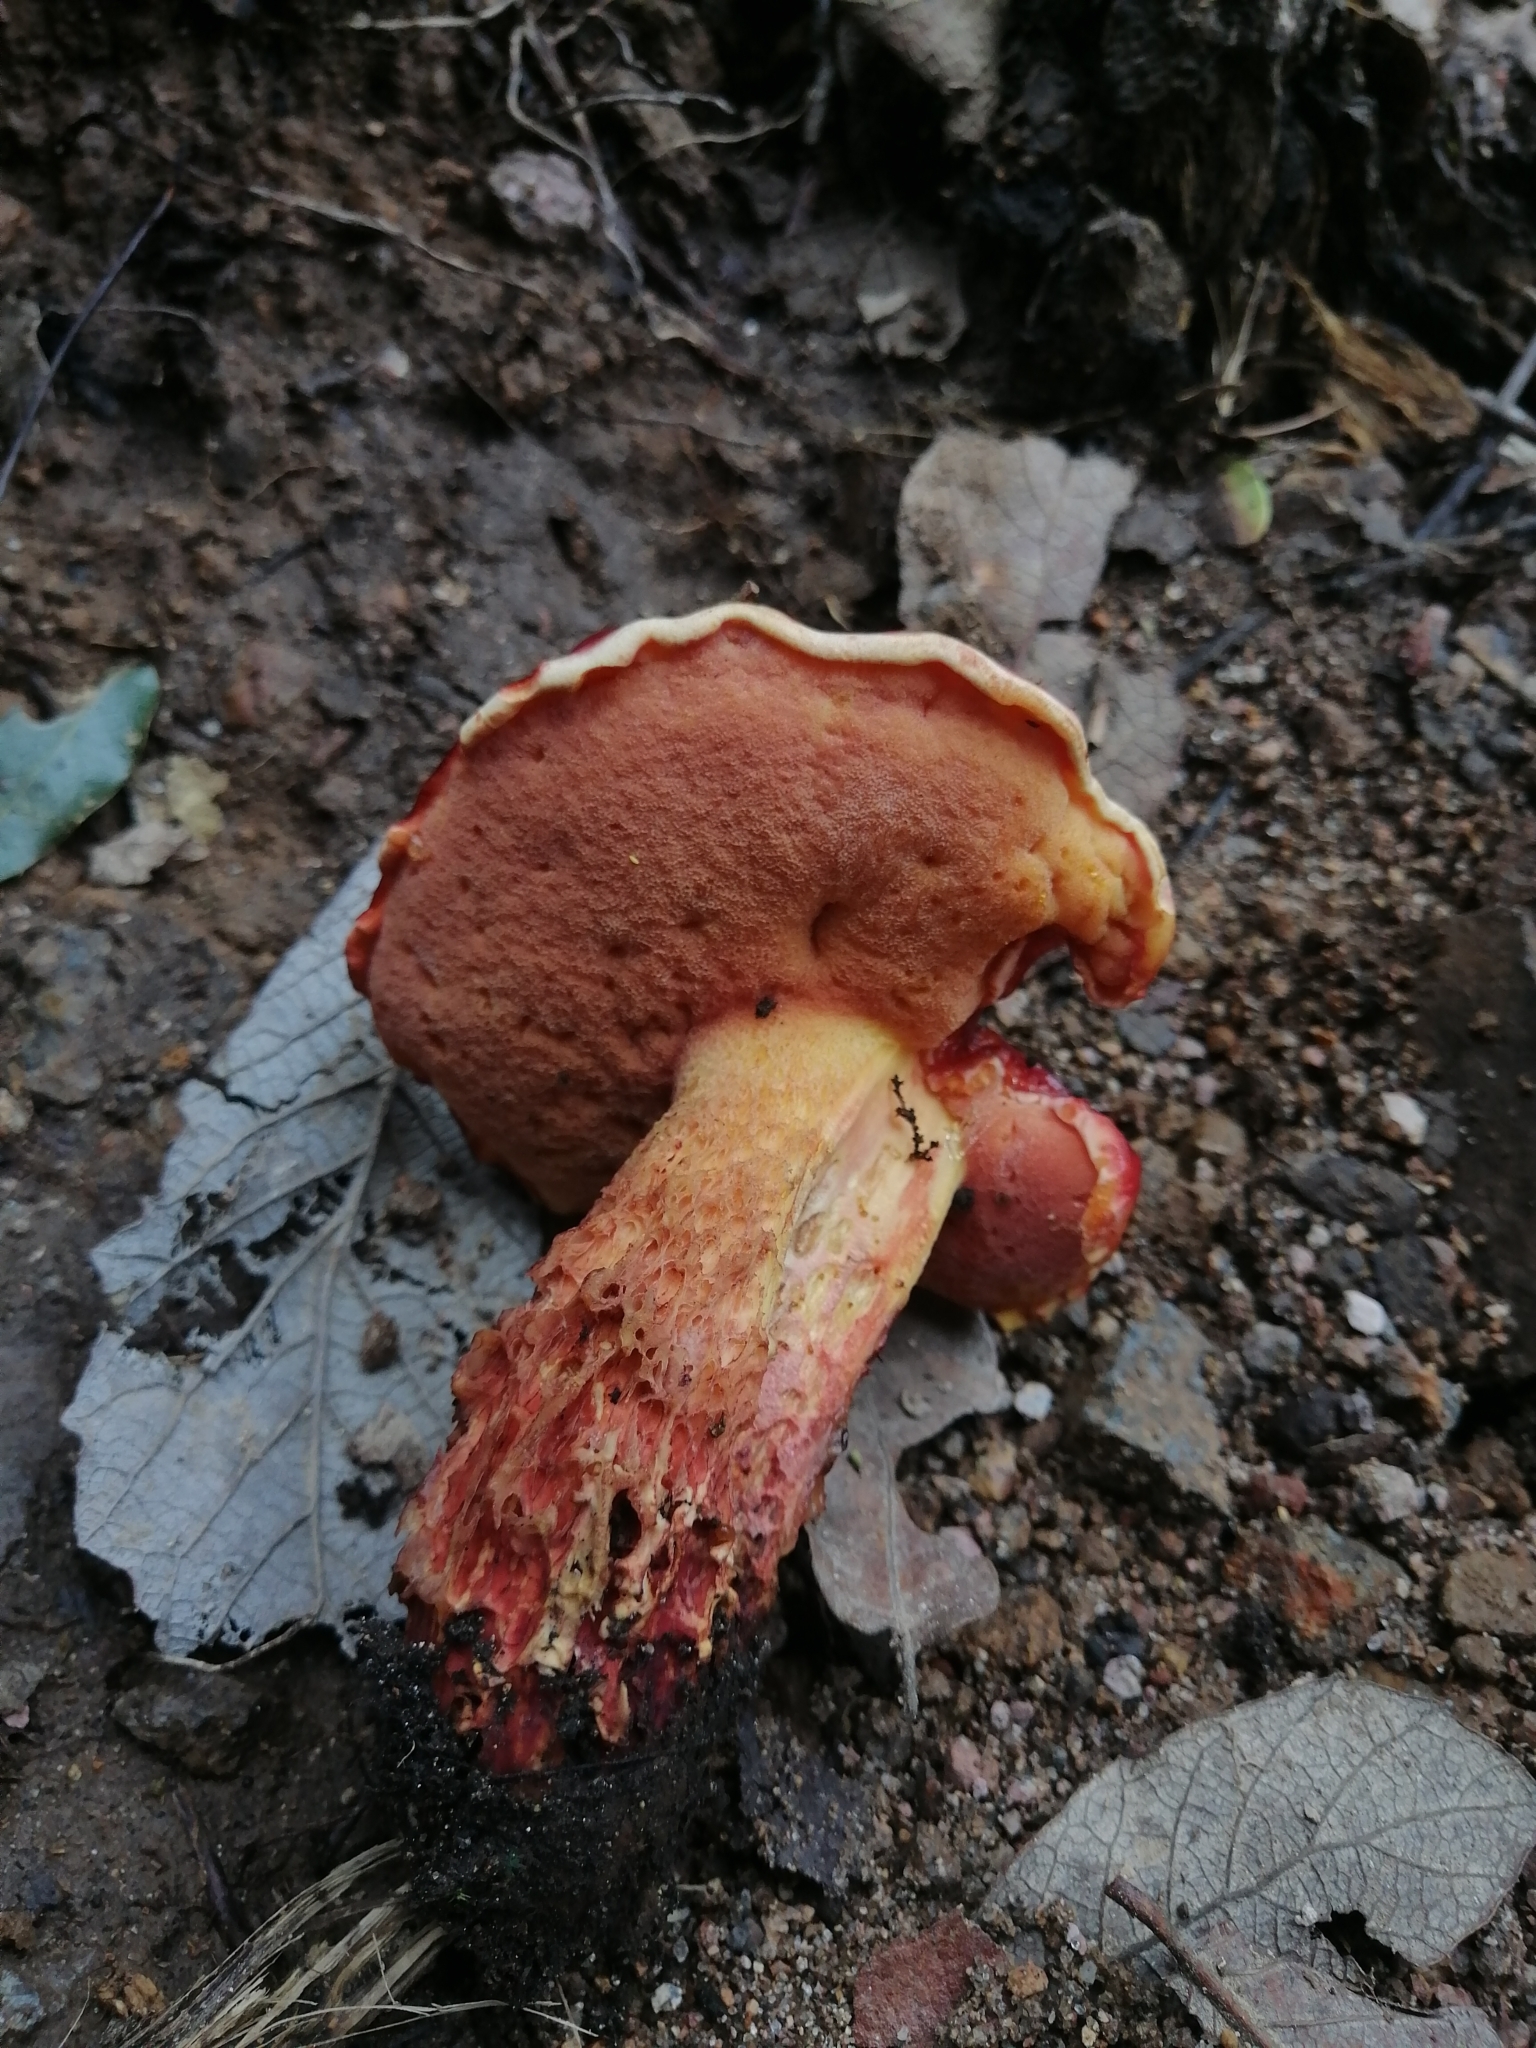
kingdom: Fungi
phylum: Basidiomycota
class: Agaricomycetes
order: Boletales
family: Boletaceae
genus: Butyriboletus
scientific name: Butyriboletus frostii
